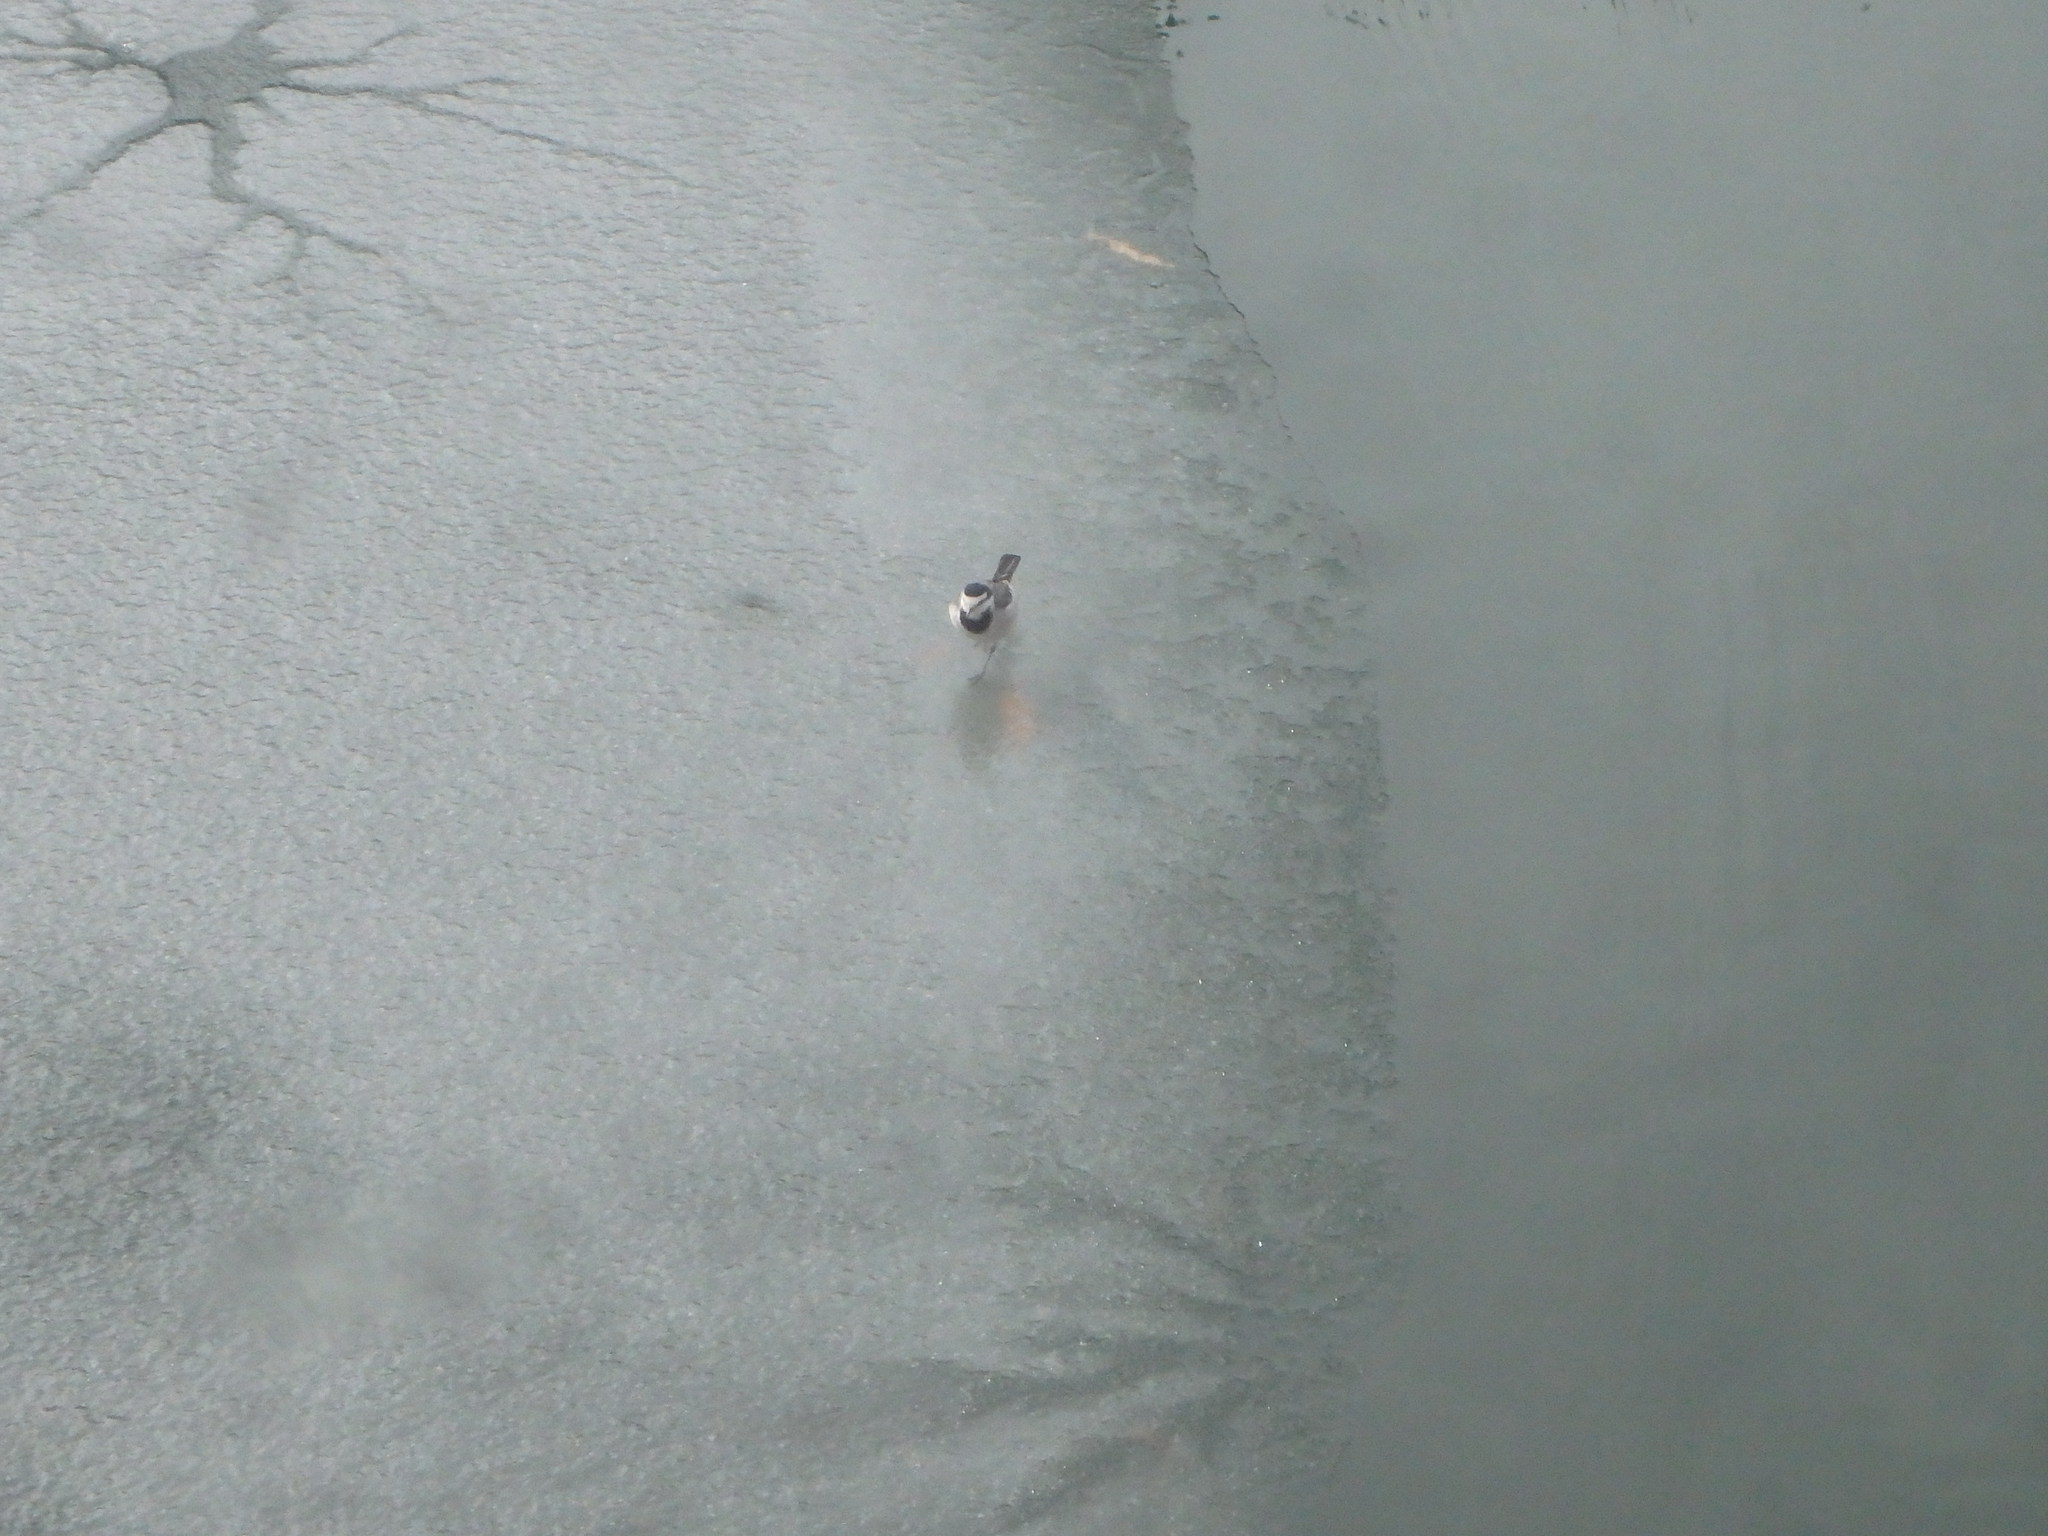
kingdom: Animalia
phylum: Chordata
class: Aves
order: Passeriformes
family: Motacillidae
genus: Motacilla
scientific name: Motacilla alba
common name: White wagtail
